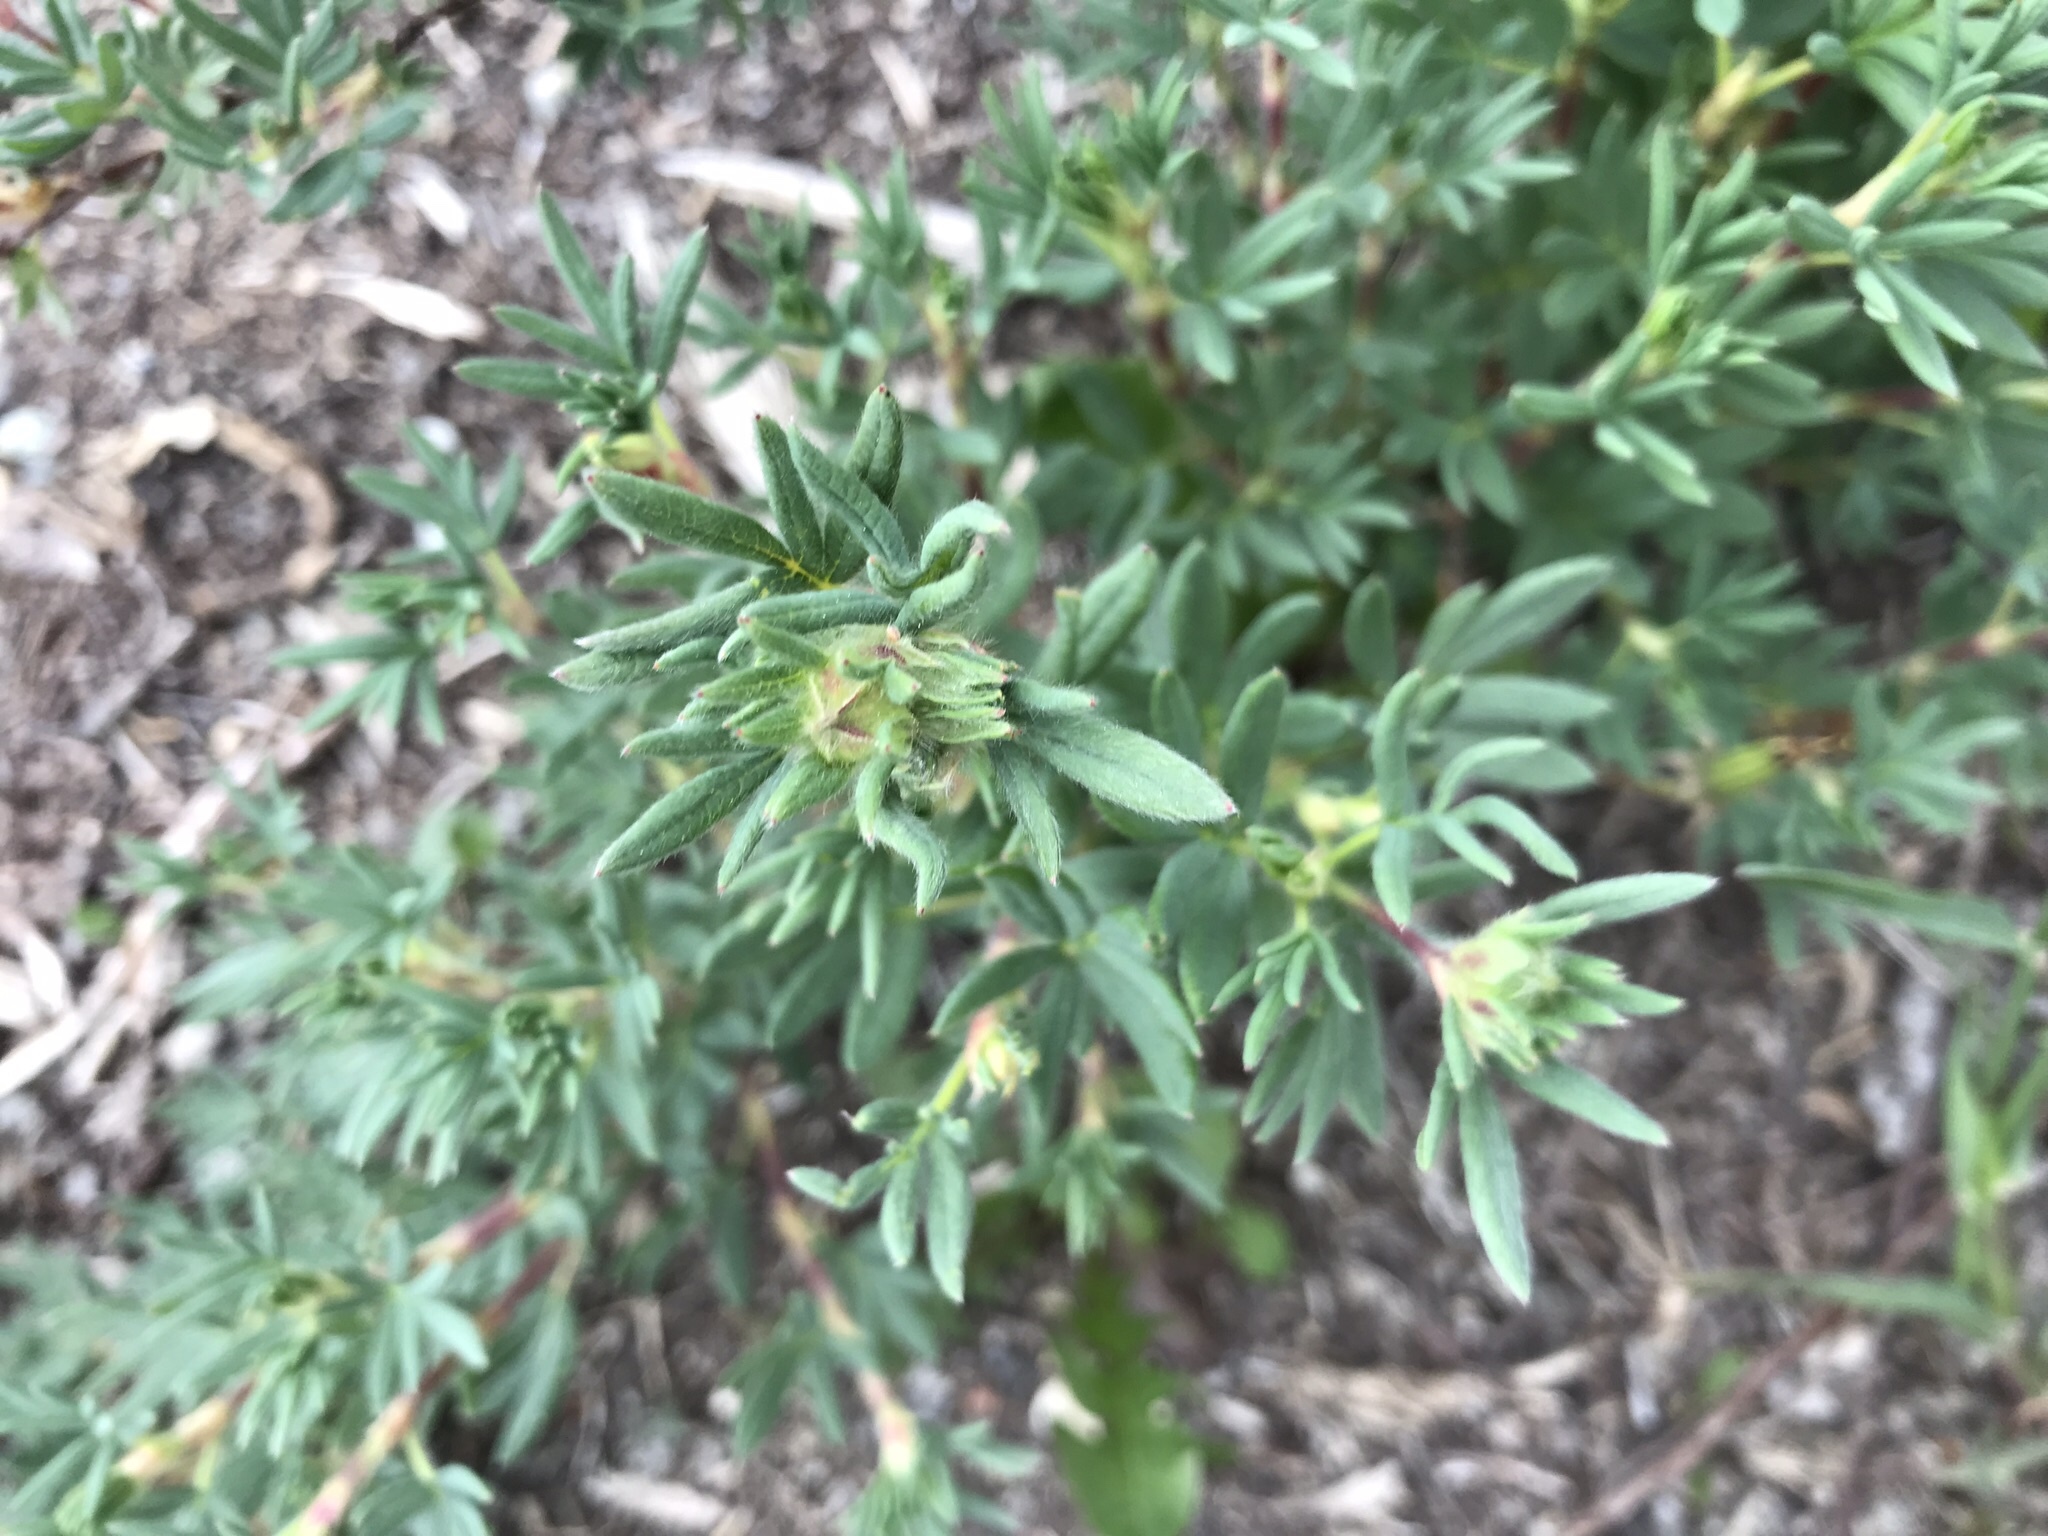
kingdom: Plantae
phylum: Tracheophyta
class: Magnoliopsida
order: Rosales
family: Rosaceae
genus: Dasiphora
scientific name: Dasiphora fruticosa
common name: Shrubby cinquefoil
